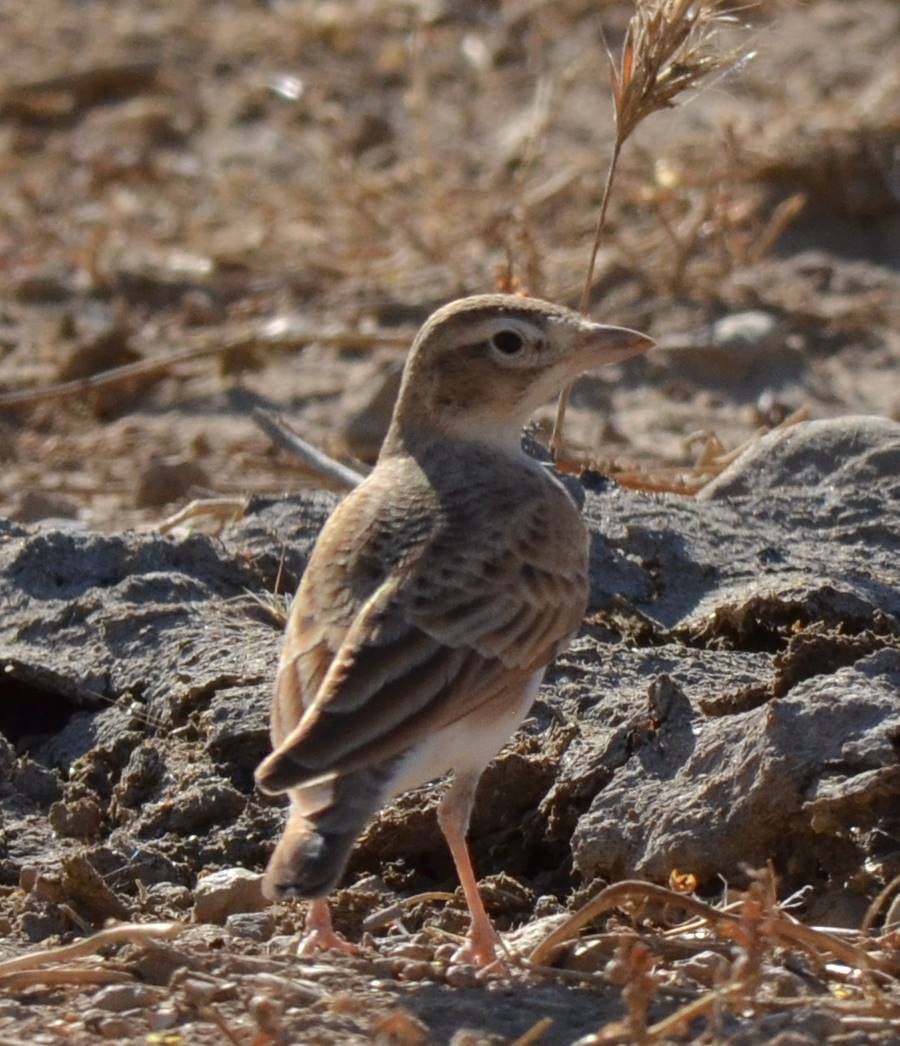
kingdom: Animalia
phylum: Chordata
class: Aves
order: Passeriformes
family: Alaudidae
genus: Calandrella
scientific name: Calandrella brachydactyla
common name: Greater short-toed lark
